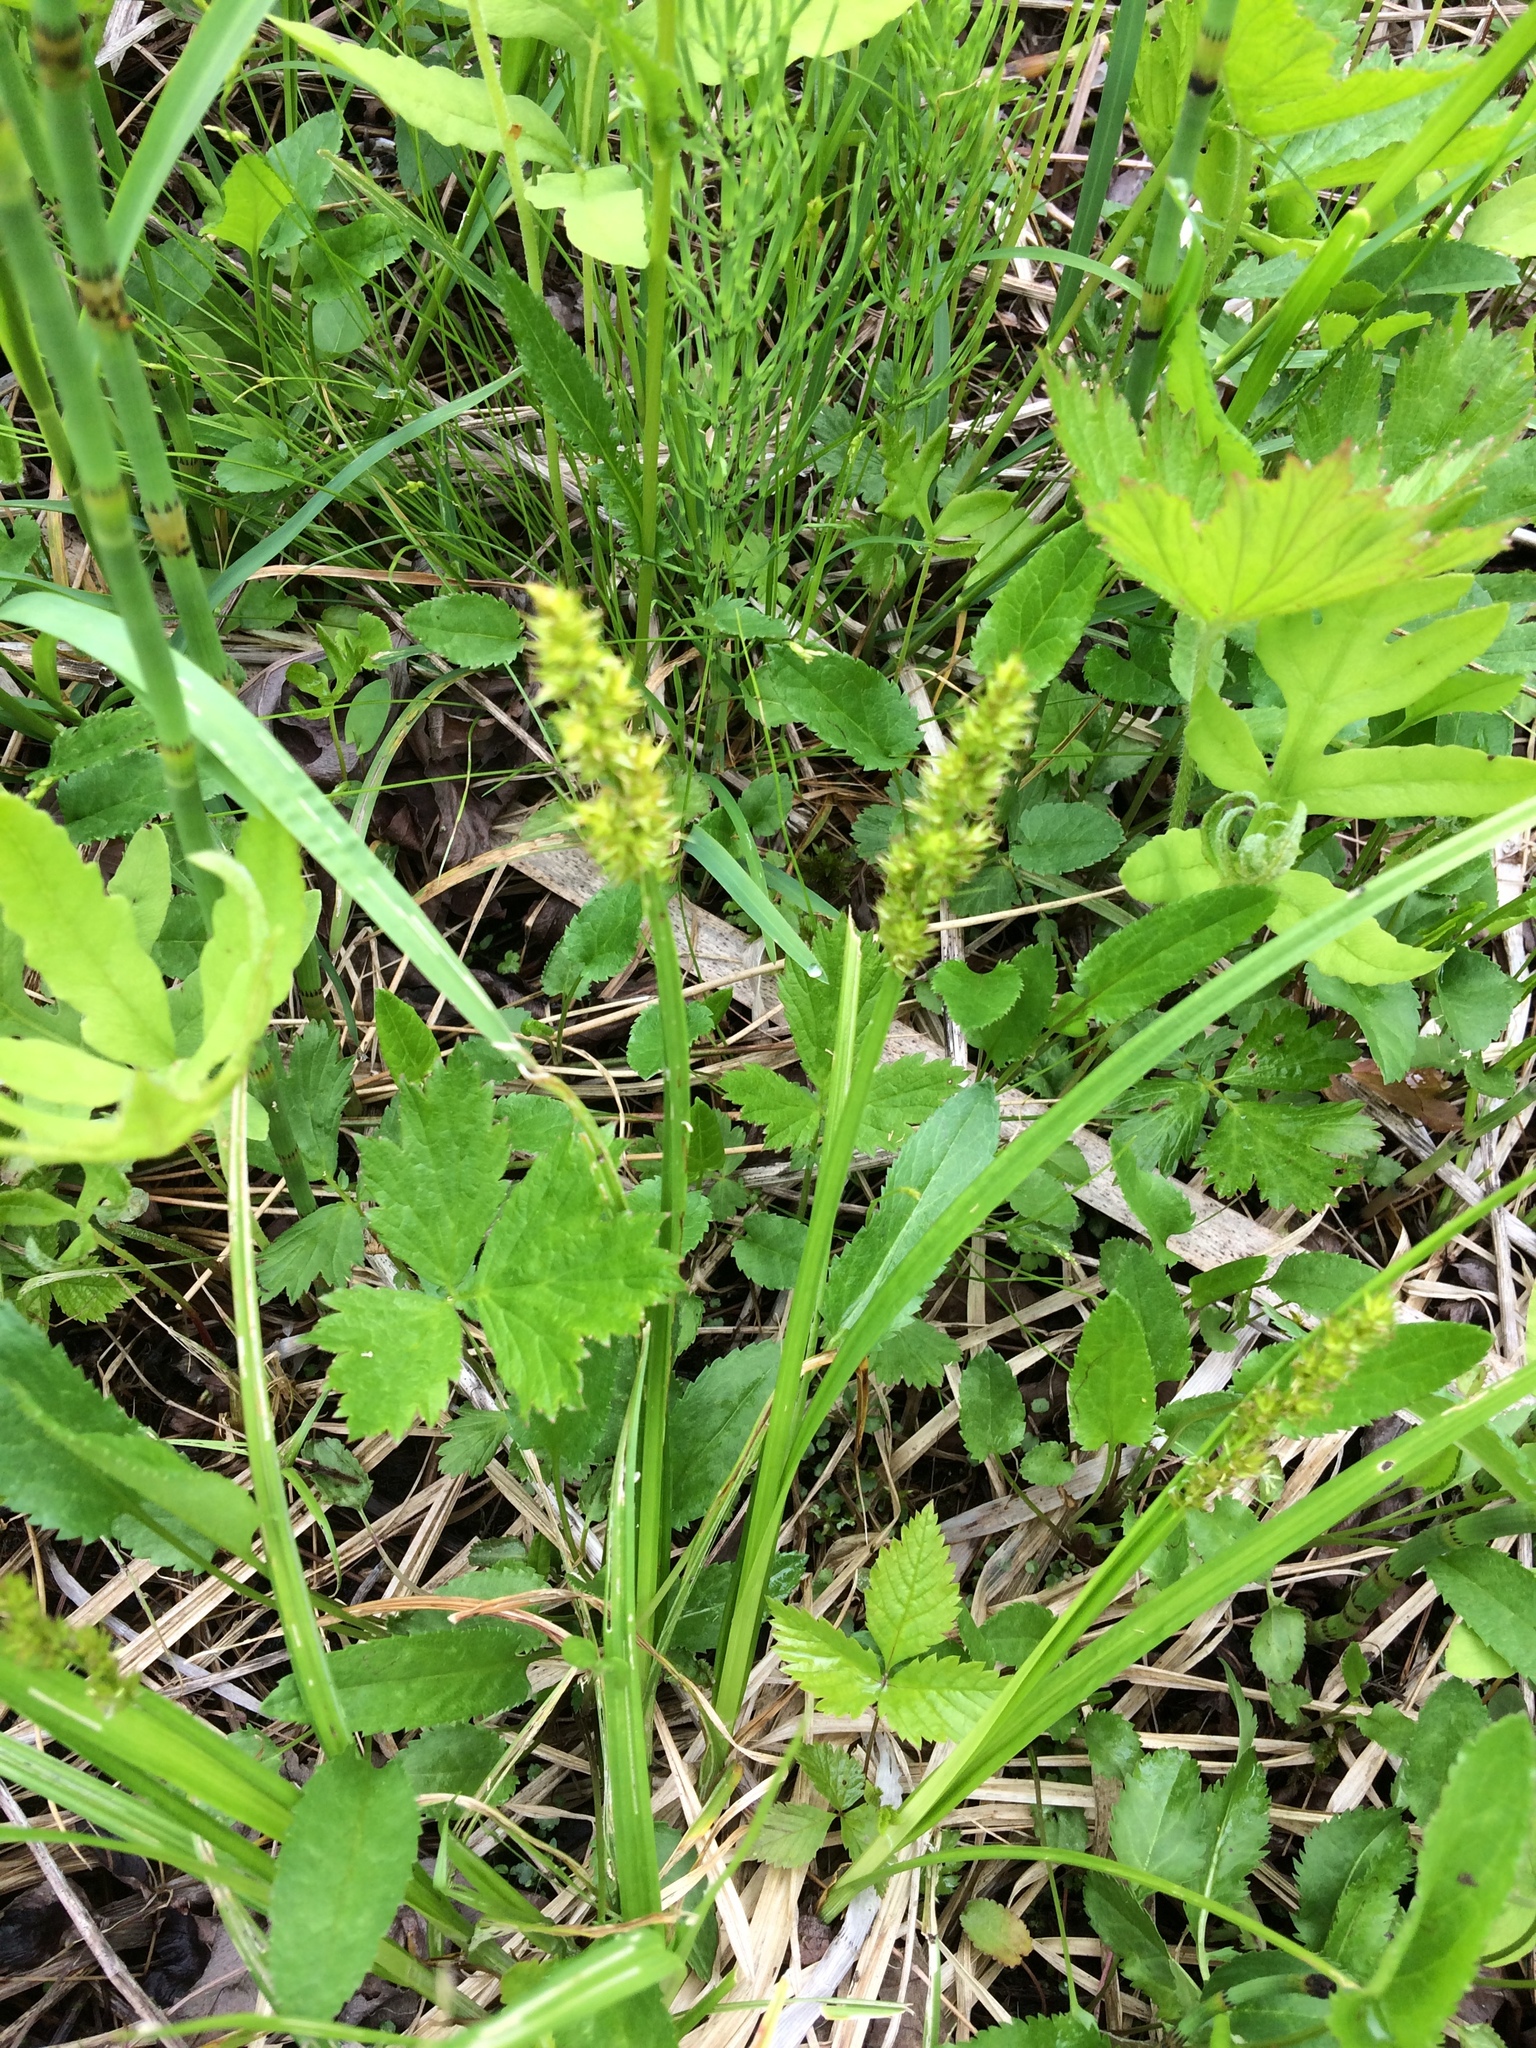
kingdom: Plantae
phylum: Tracheophyta
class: Liliopsida
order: Poales
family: Cyperaceae
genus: Carex
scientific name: Carex stipata
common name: Awl-fruited sedge
